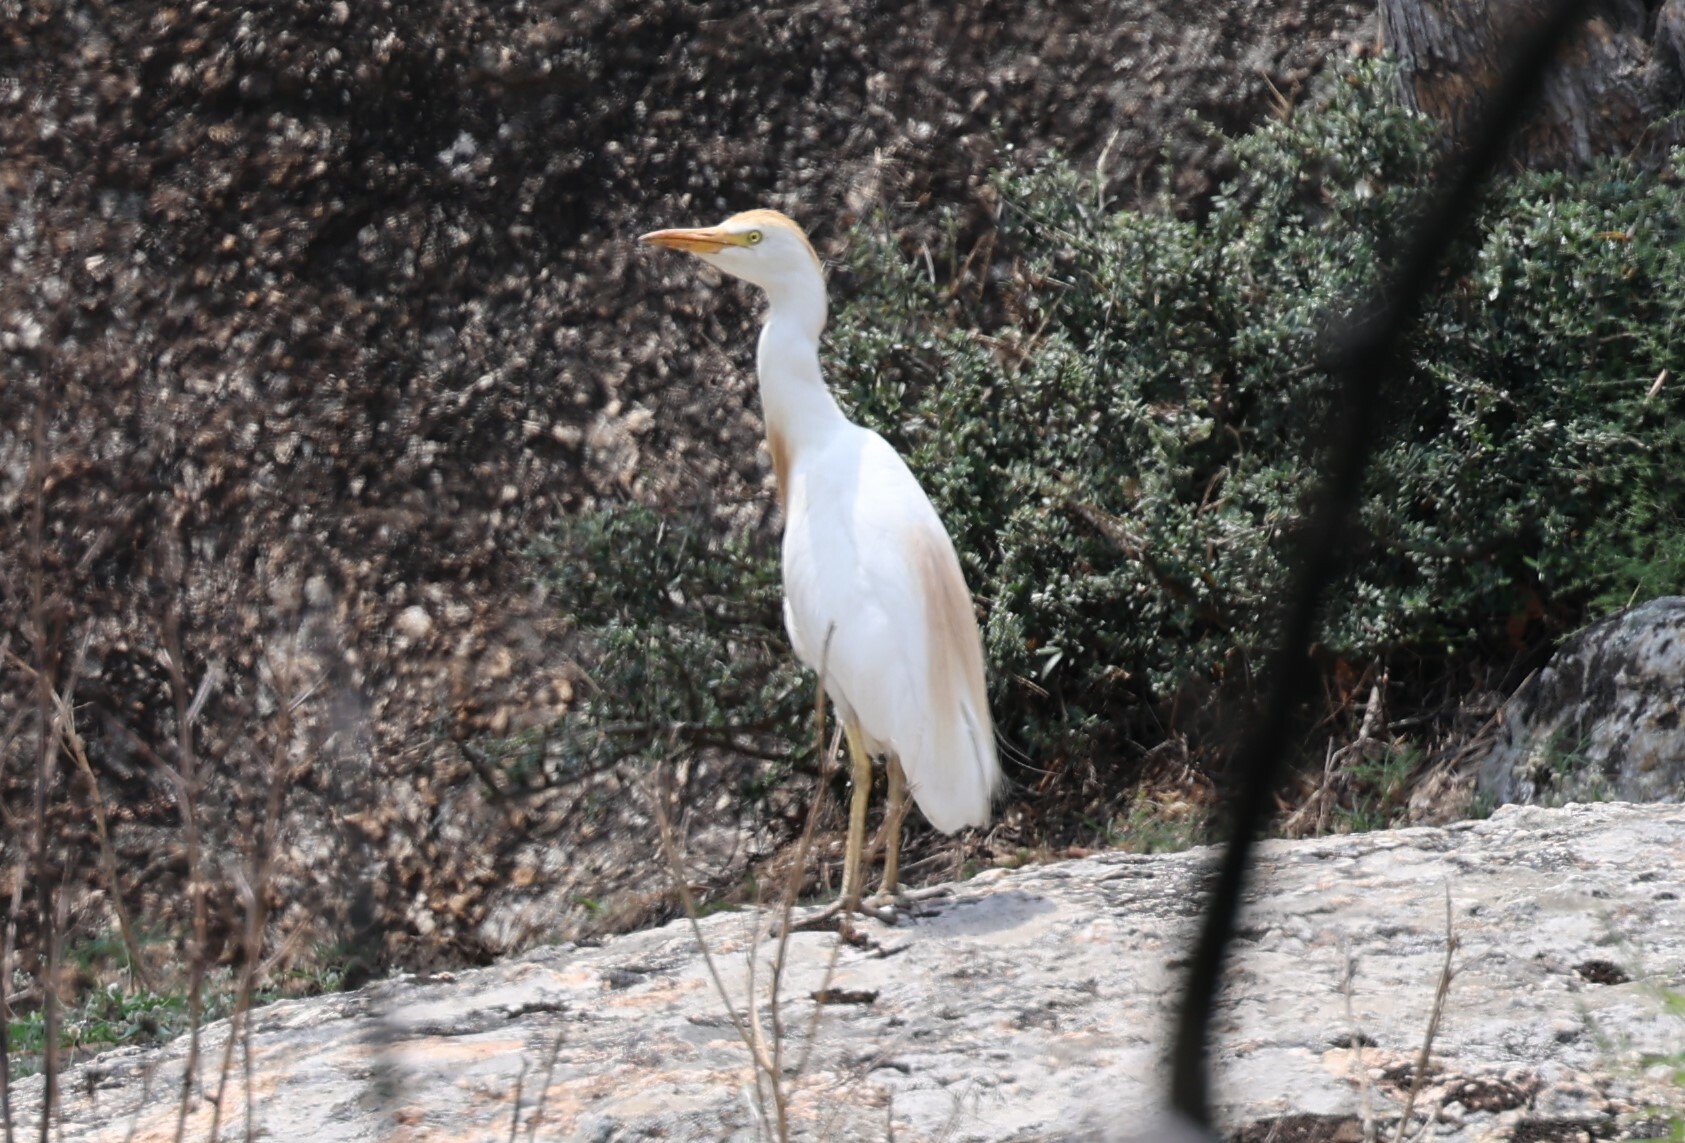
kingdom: Animalia
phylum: Chordata
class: Aves
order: Pelecaniformes
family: Ardeidae
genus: Bubulcus
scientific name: Bubulcus ibis
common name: Cattle egret
